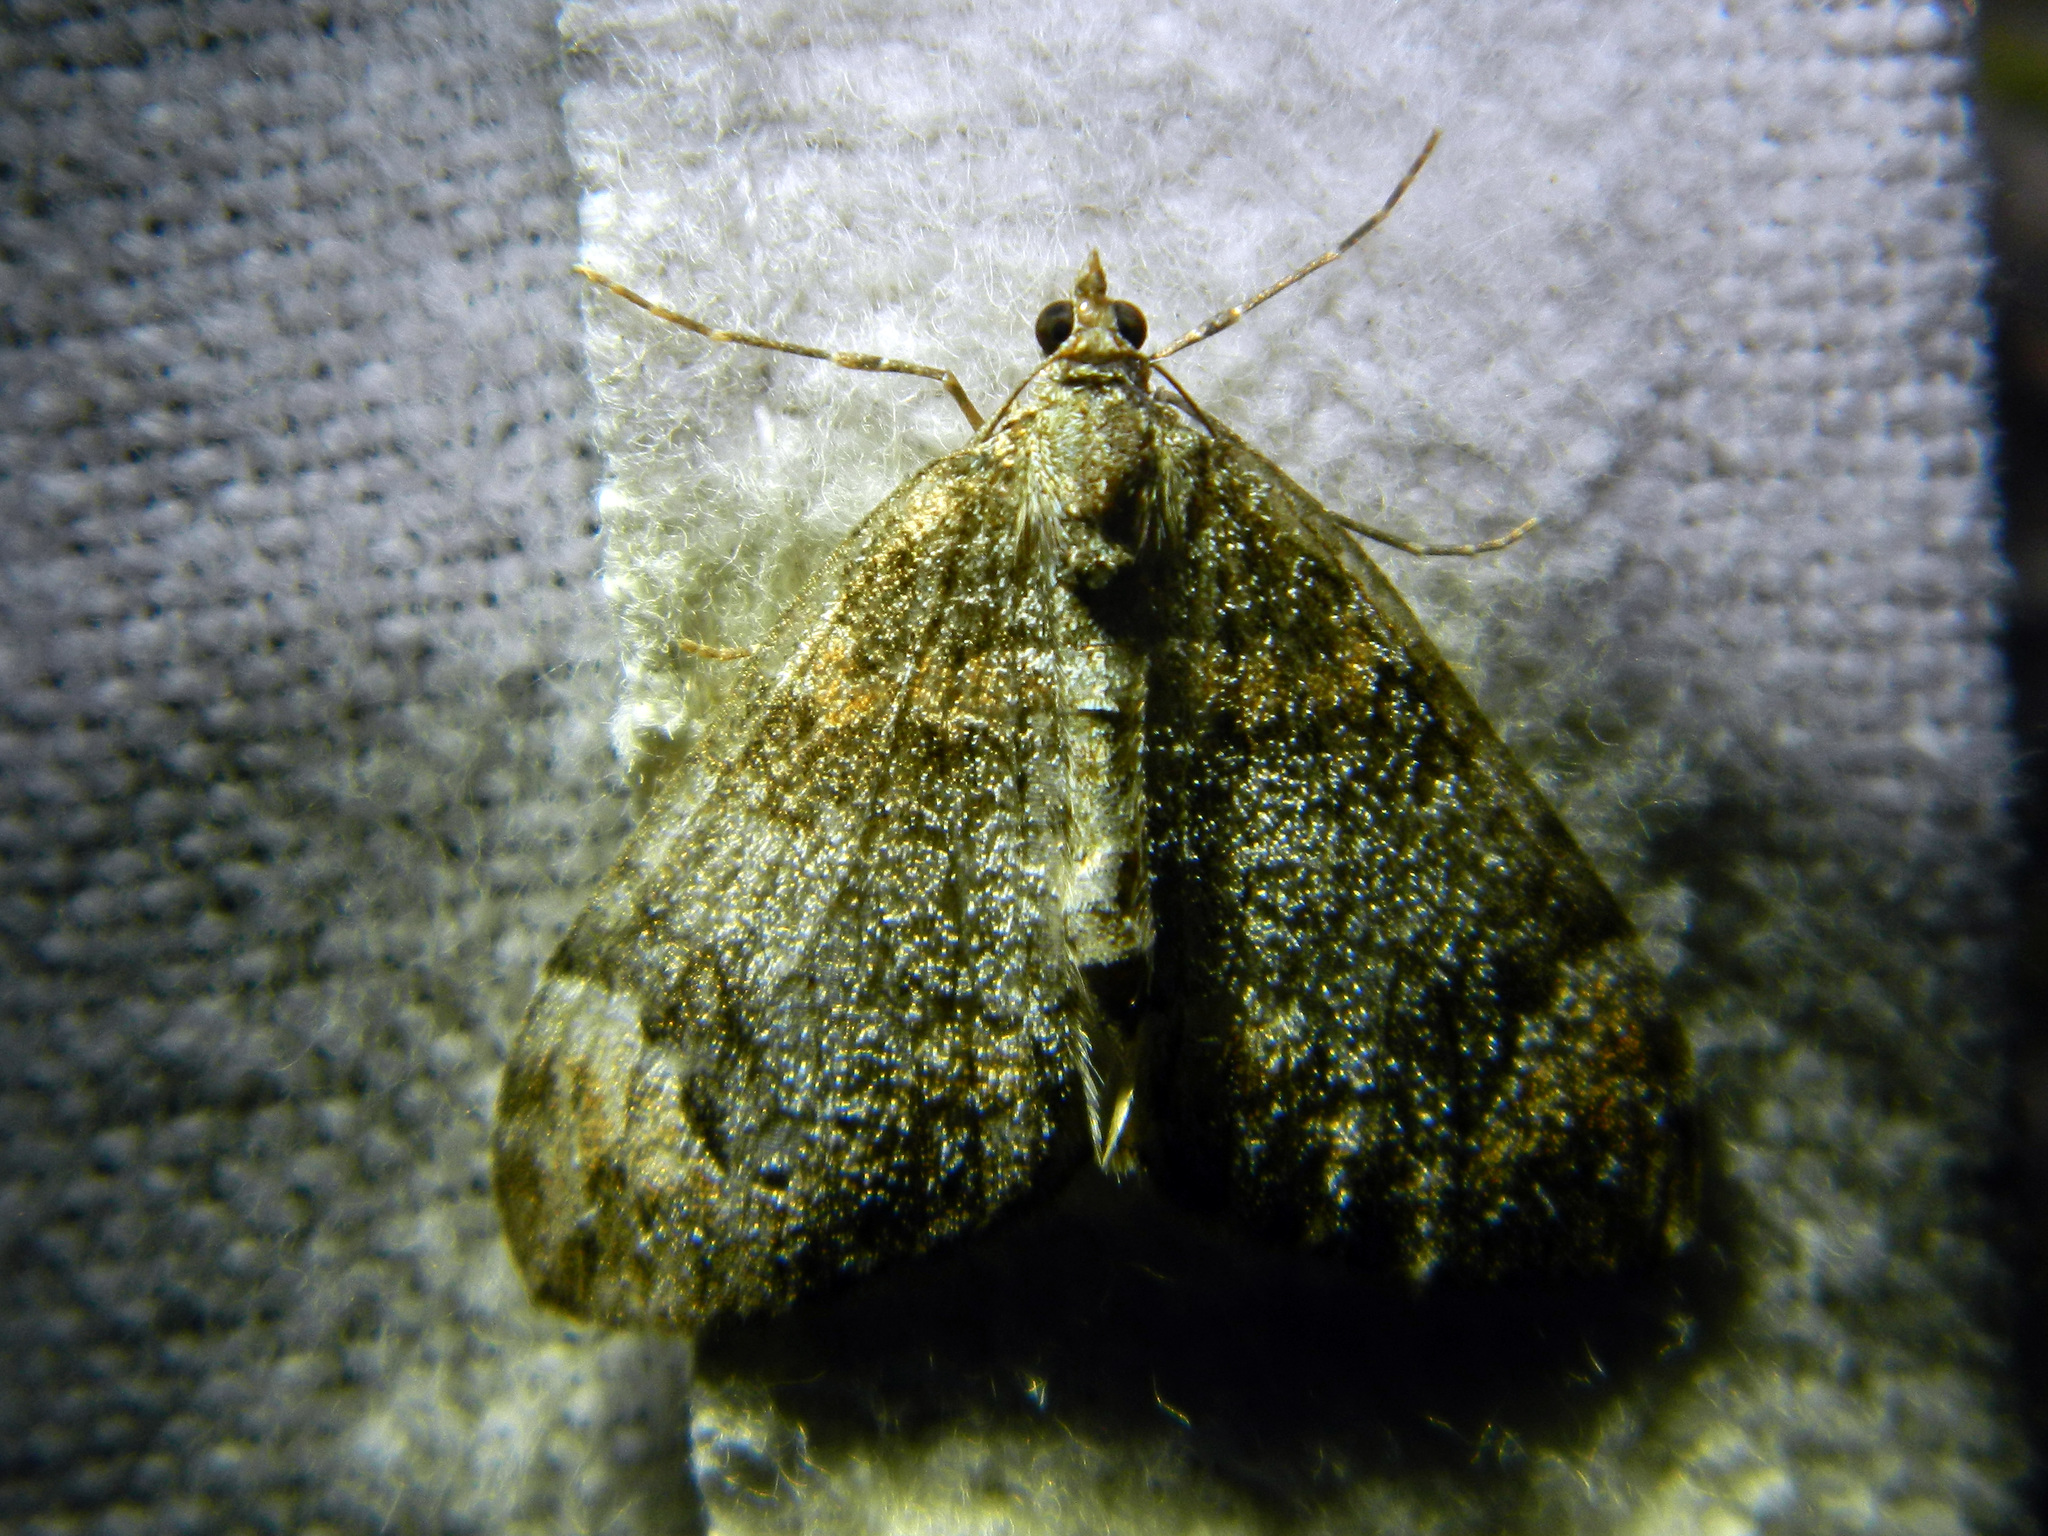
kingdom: Animalia
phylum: Arthropoda
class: Insecta
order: Lepidoptera
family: Geometridae
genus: Dysstroma
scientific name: Dysstroma citrata
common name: Dark marbled carpet
